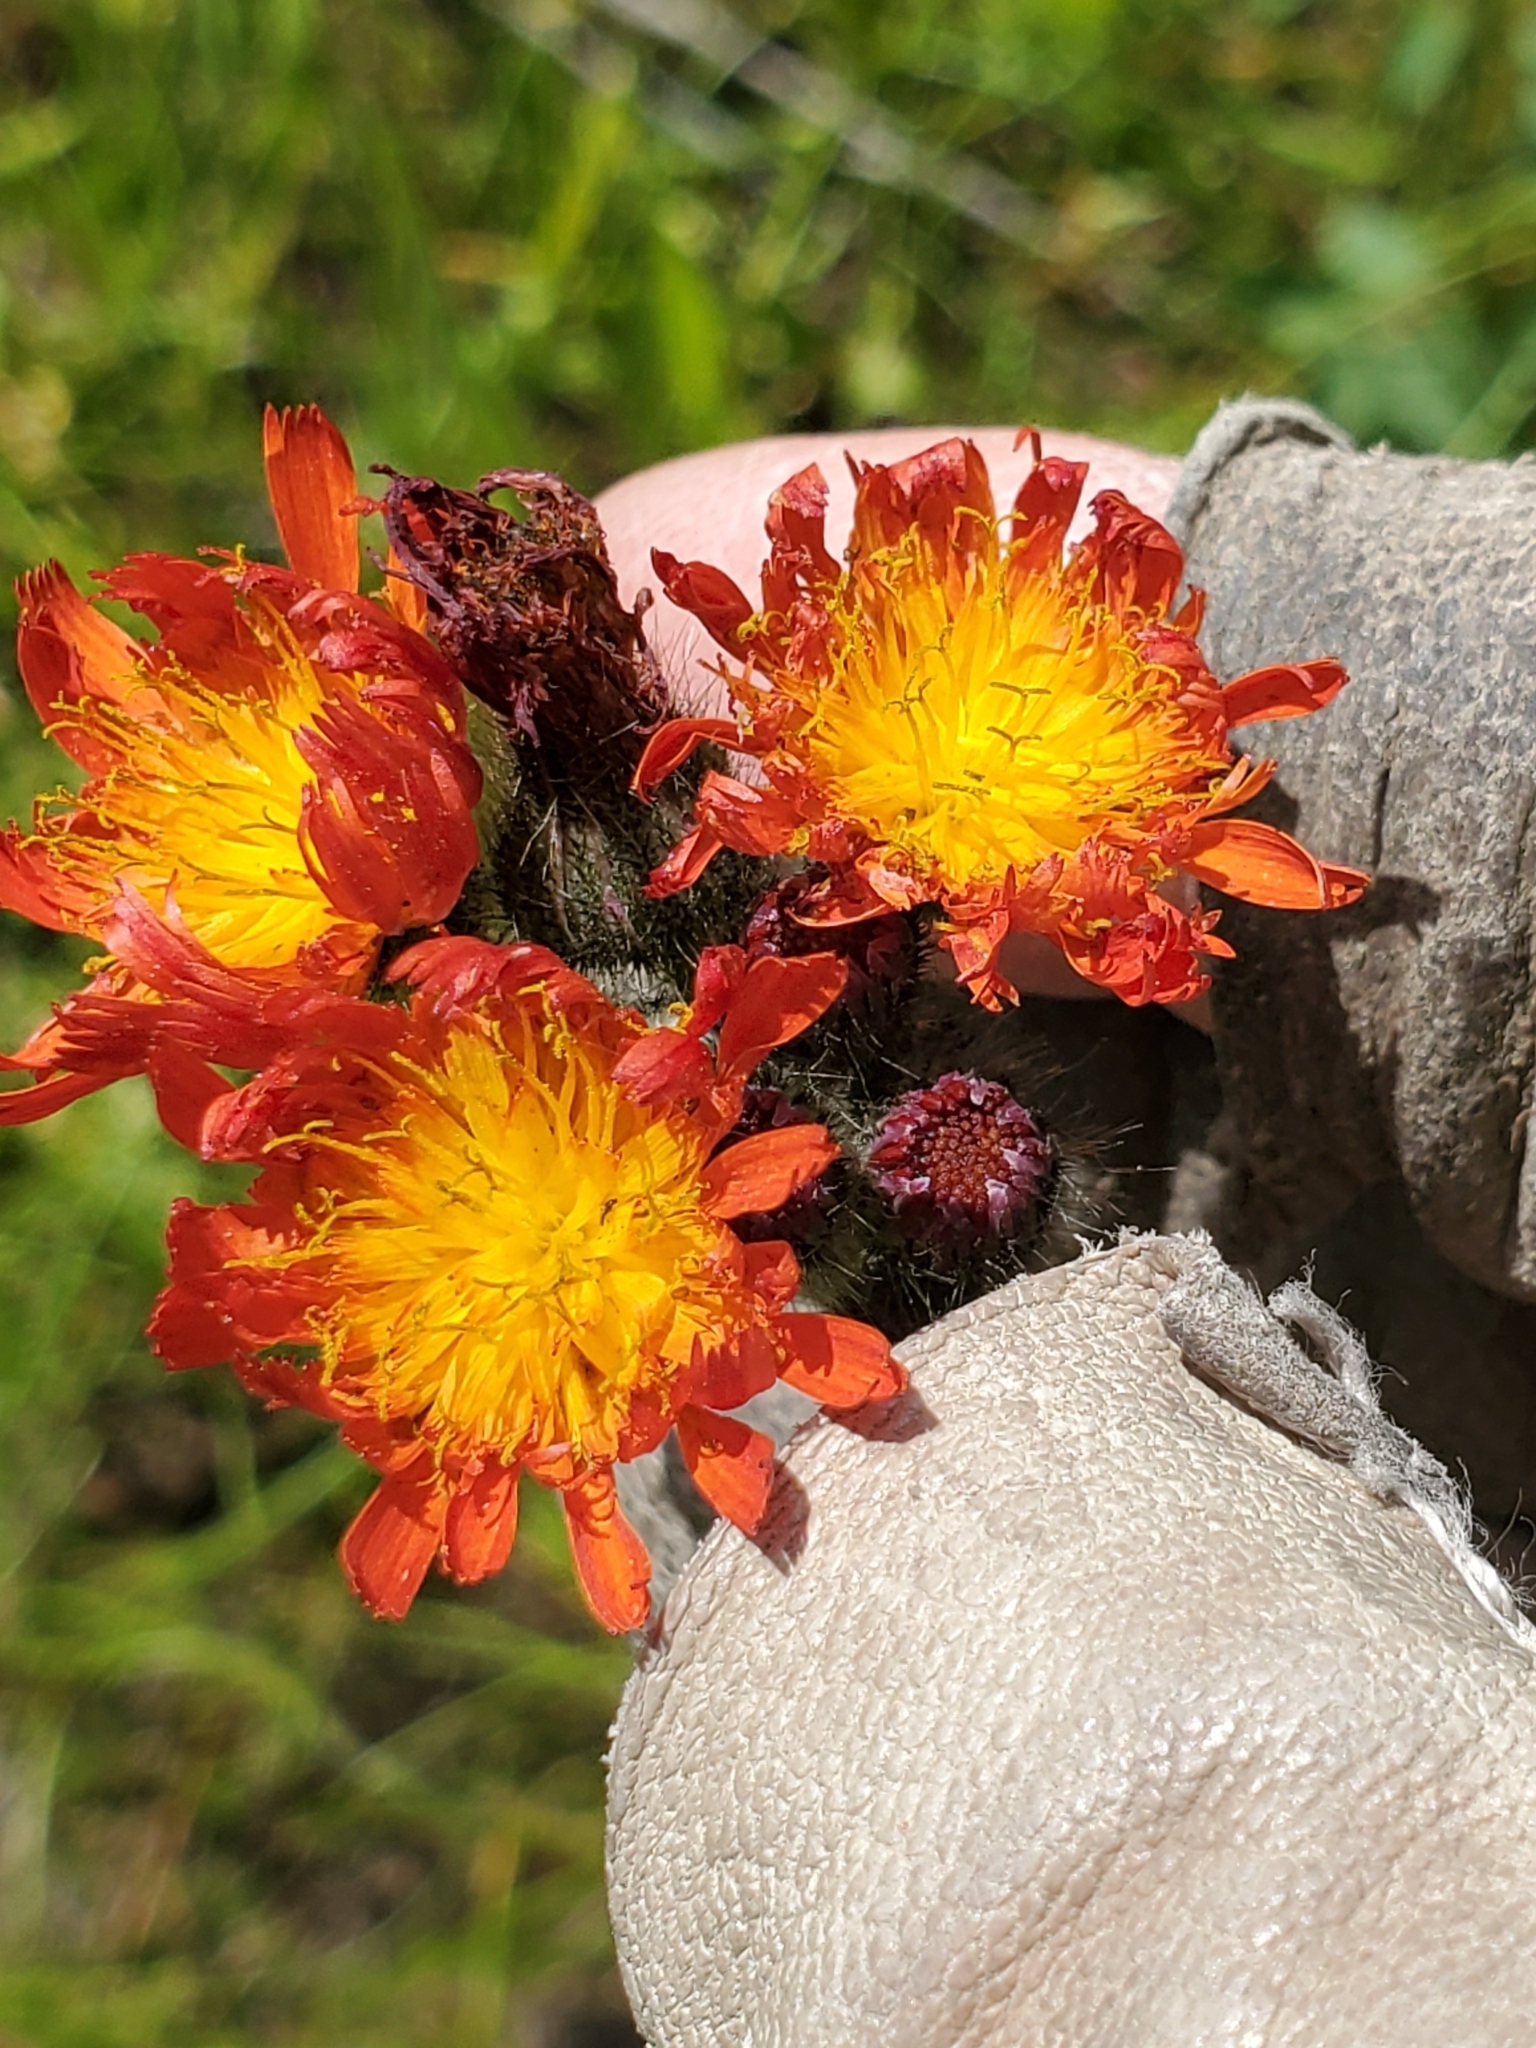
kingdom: Plantae
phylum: Tracheophyta
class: Magnoliopsida
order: Asterales
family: Asteraceae
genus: Pilosella
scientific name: Pilosella aurantiaca
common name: Fox-and-cubs
